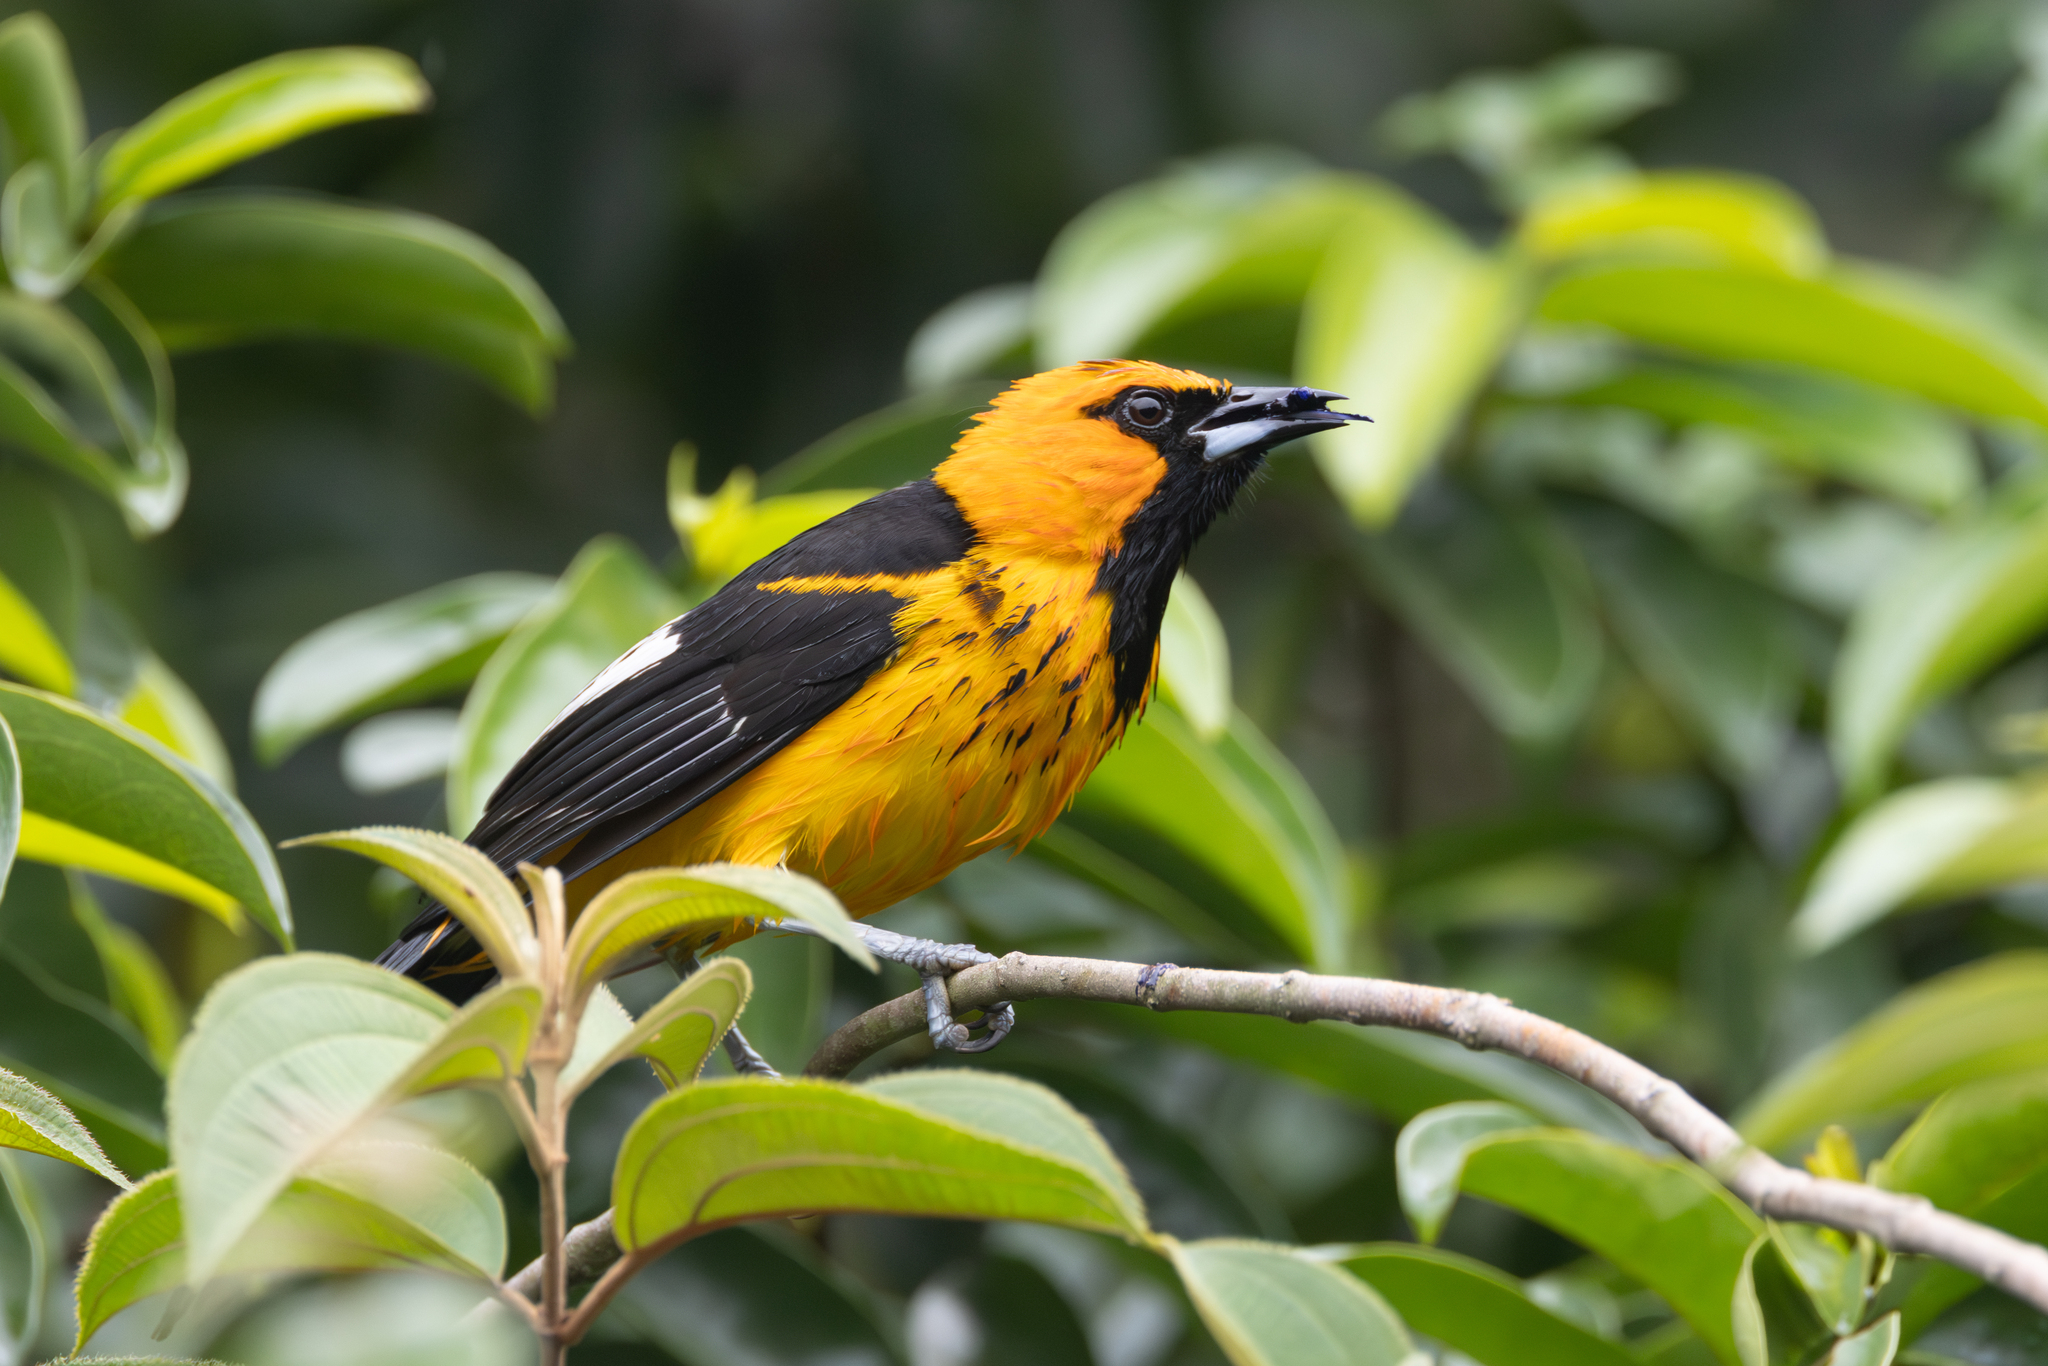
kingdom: Animalia
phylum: Chordata
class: Aves
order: Passeriformes
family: Icteridae
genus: Icterus
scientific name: Icterus pectoralis
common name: Spot-breasted oriole
